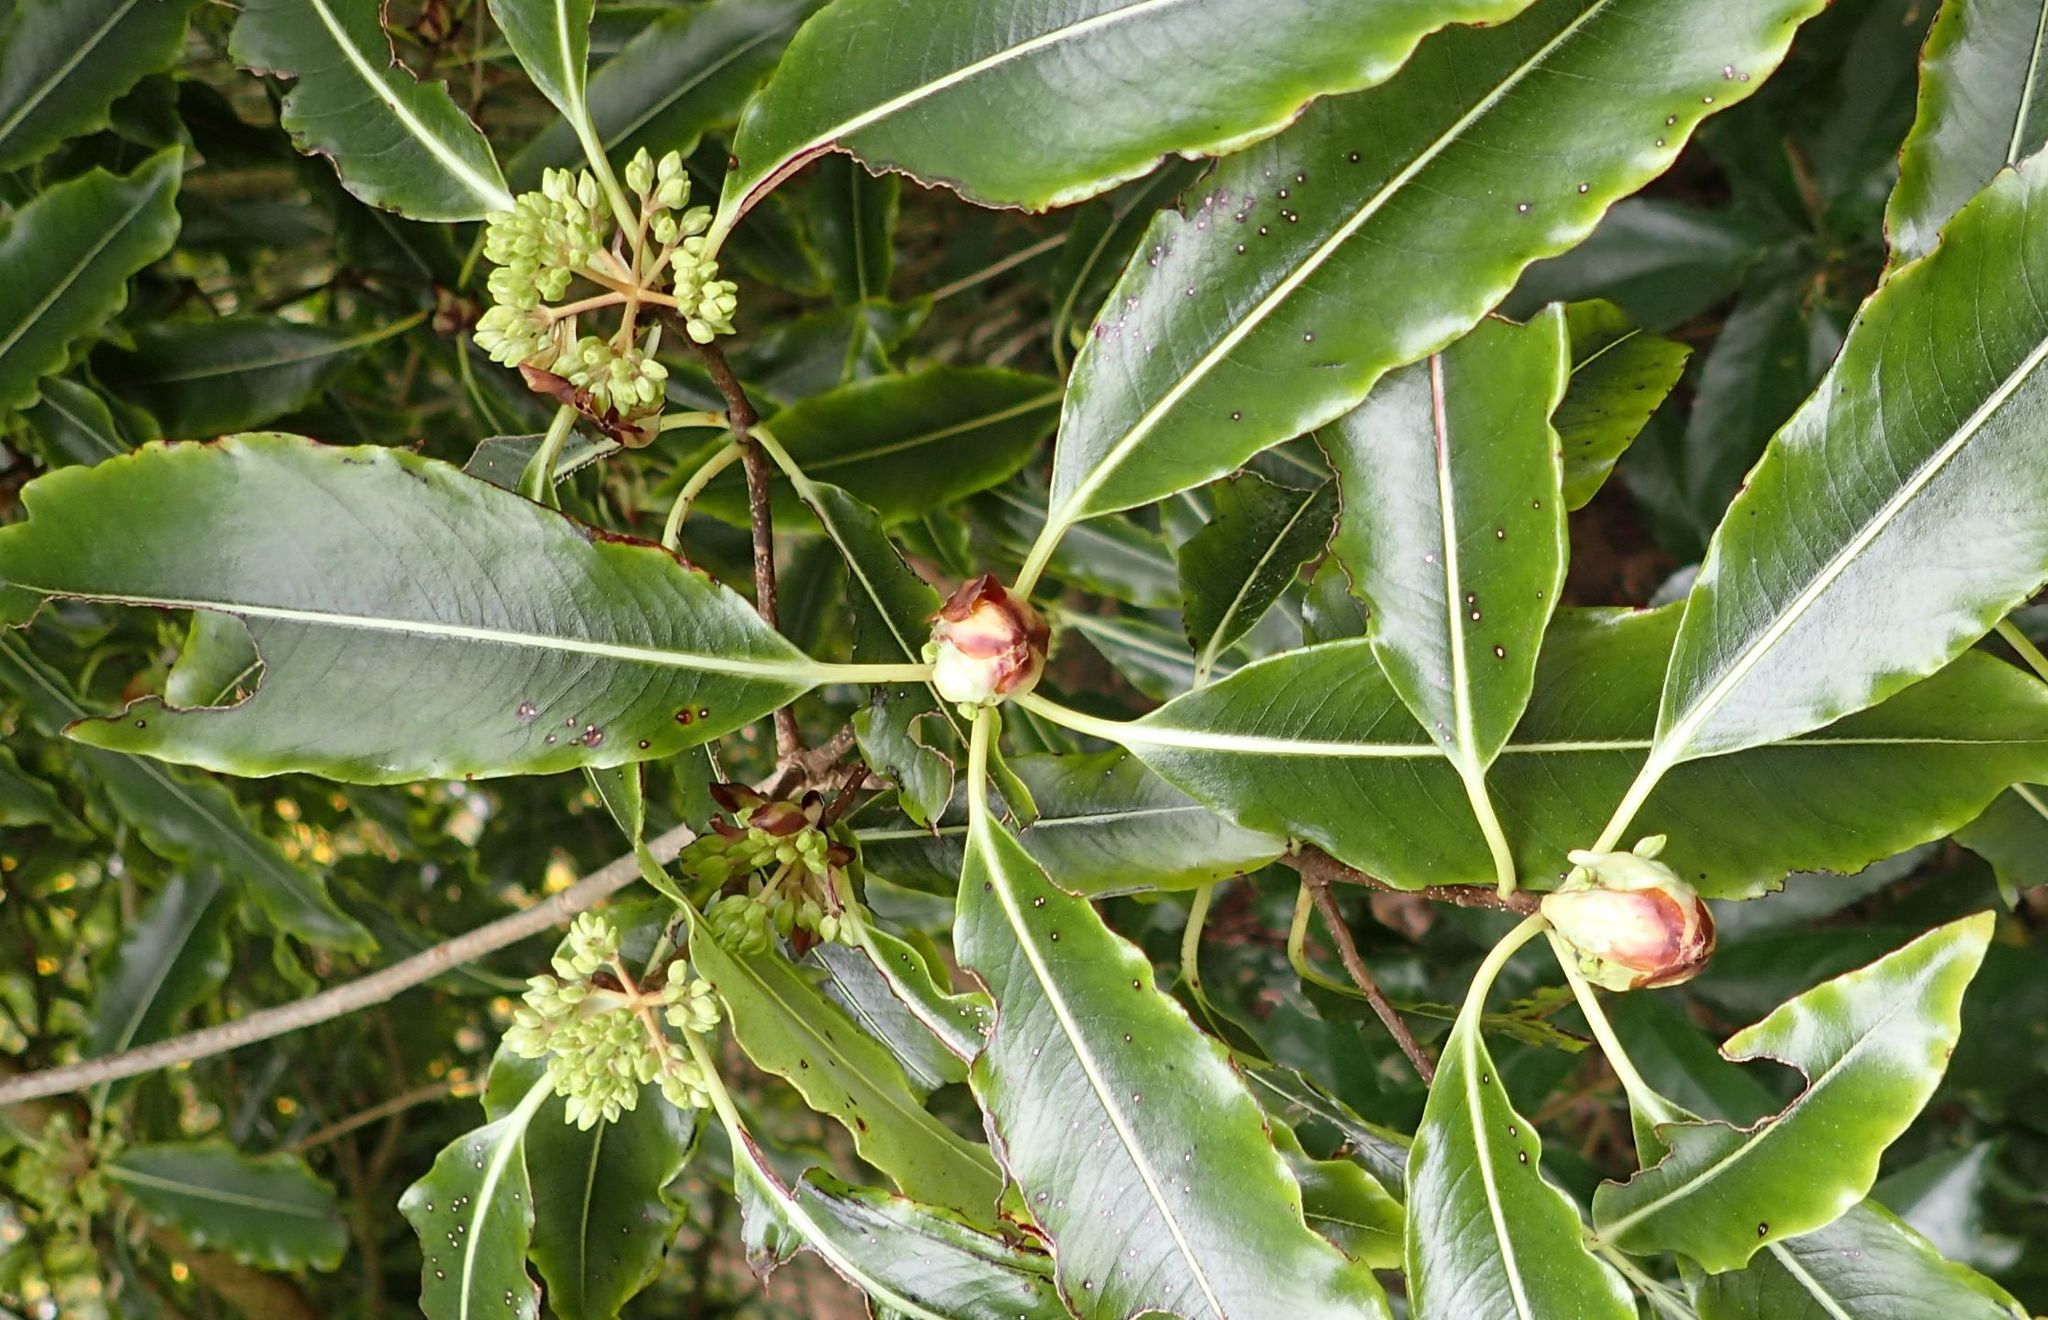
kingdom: Plantae
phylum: Tracheophyta
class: Magnoliopsida
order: Apiales
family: Pittosporaceae
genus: Pittosporum
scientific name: Pittosporum eugenioides
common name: Lemonwood
